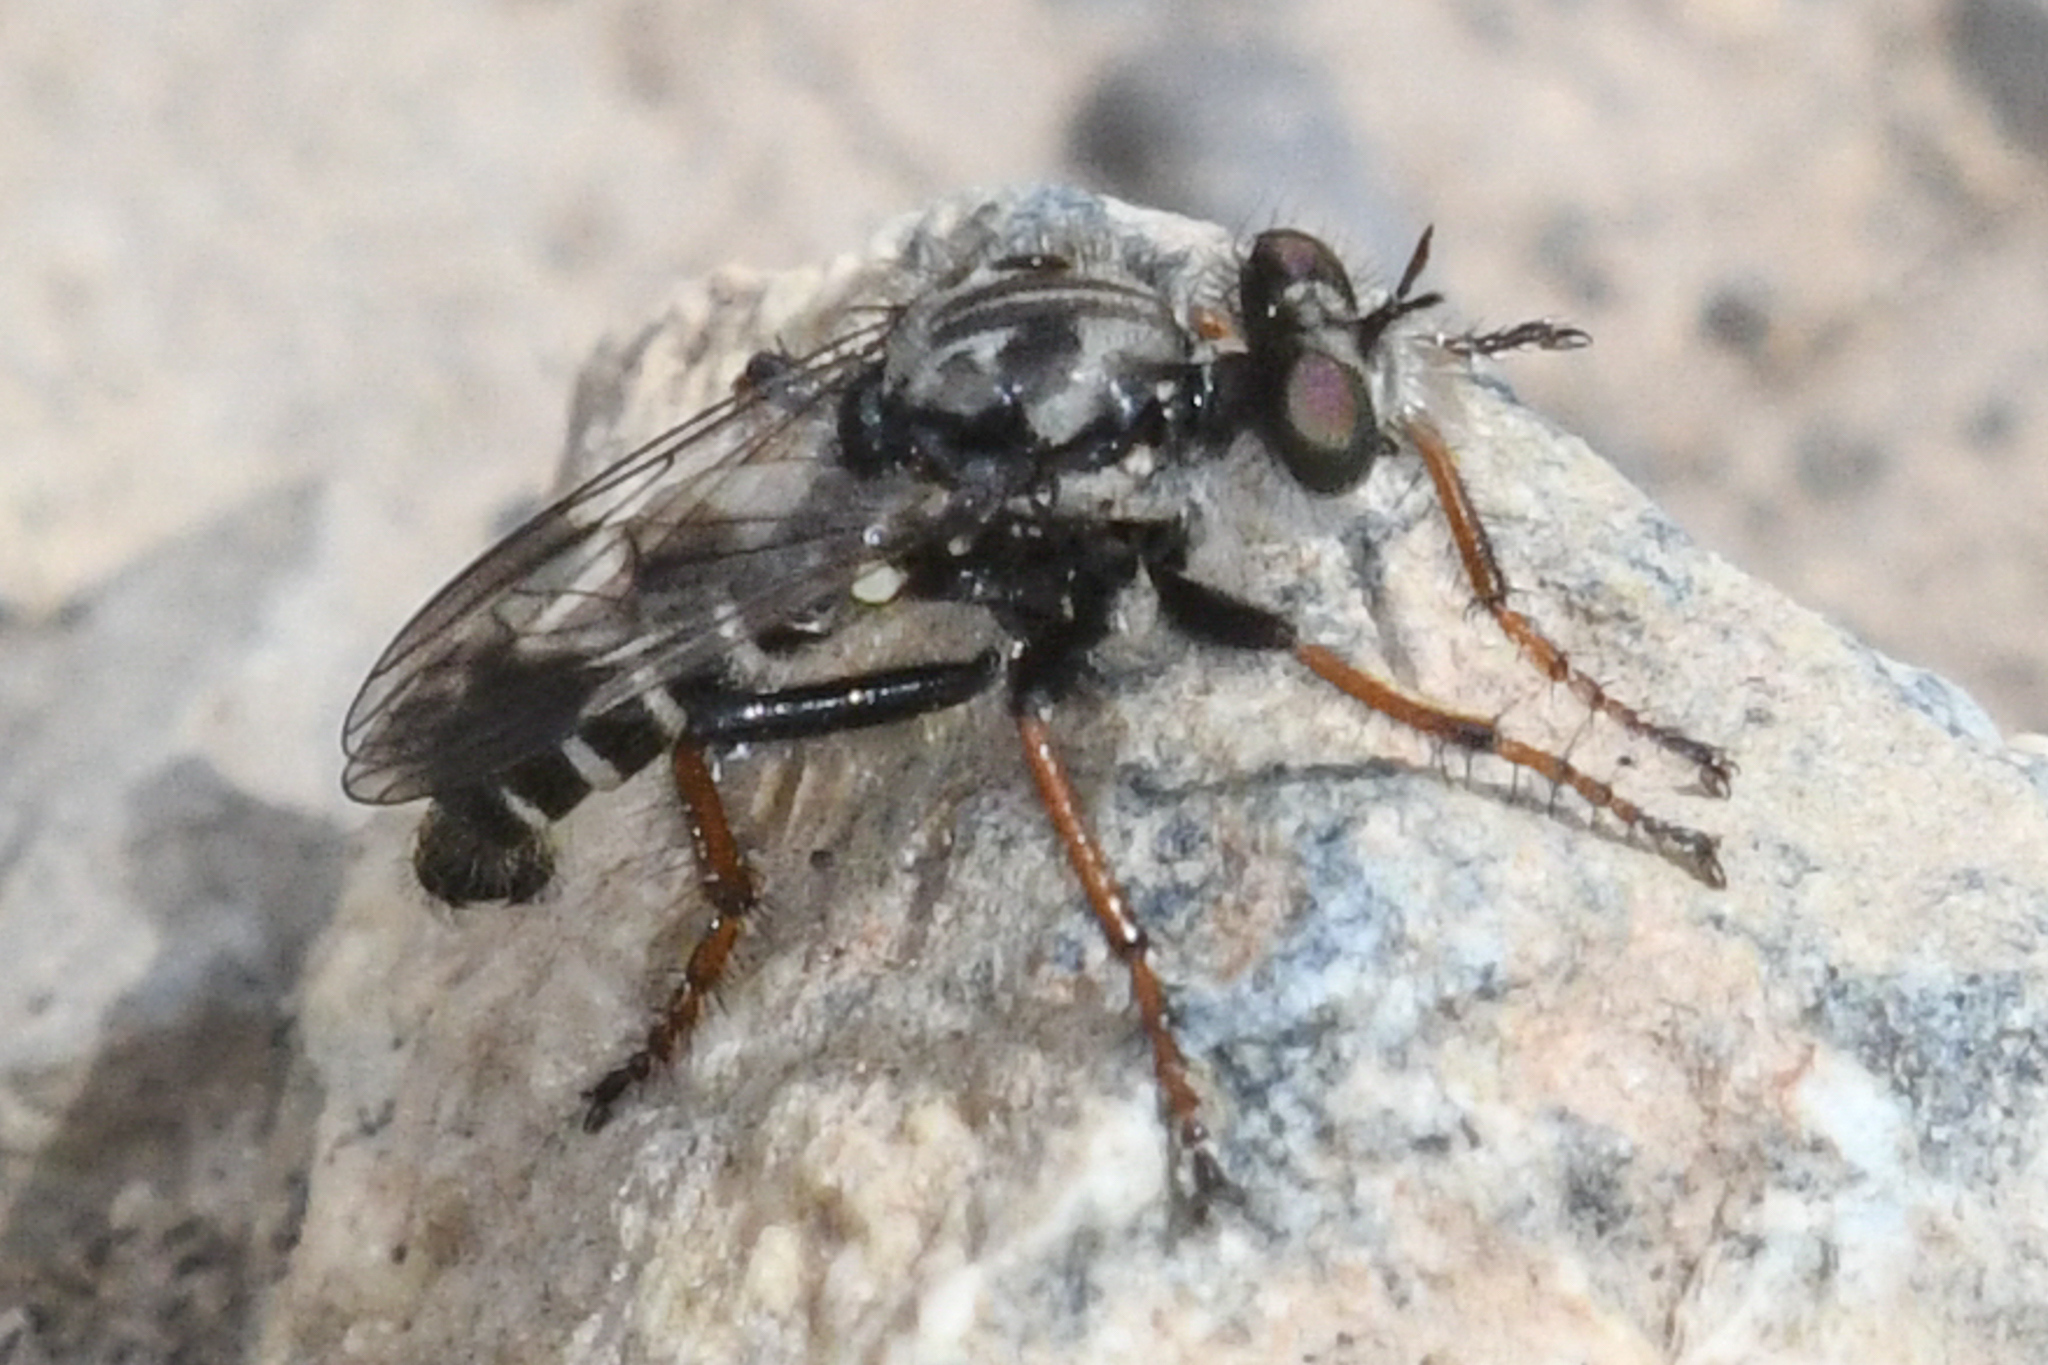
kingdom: Animalia
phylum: Arthropoda
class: Insecta
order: Diptera
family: Asilidae
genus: Cyrtopogon
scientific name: Cyrtopogon bimaculus
